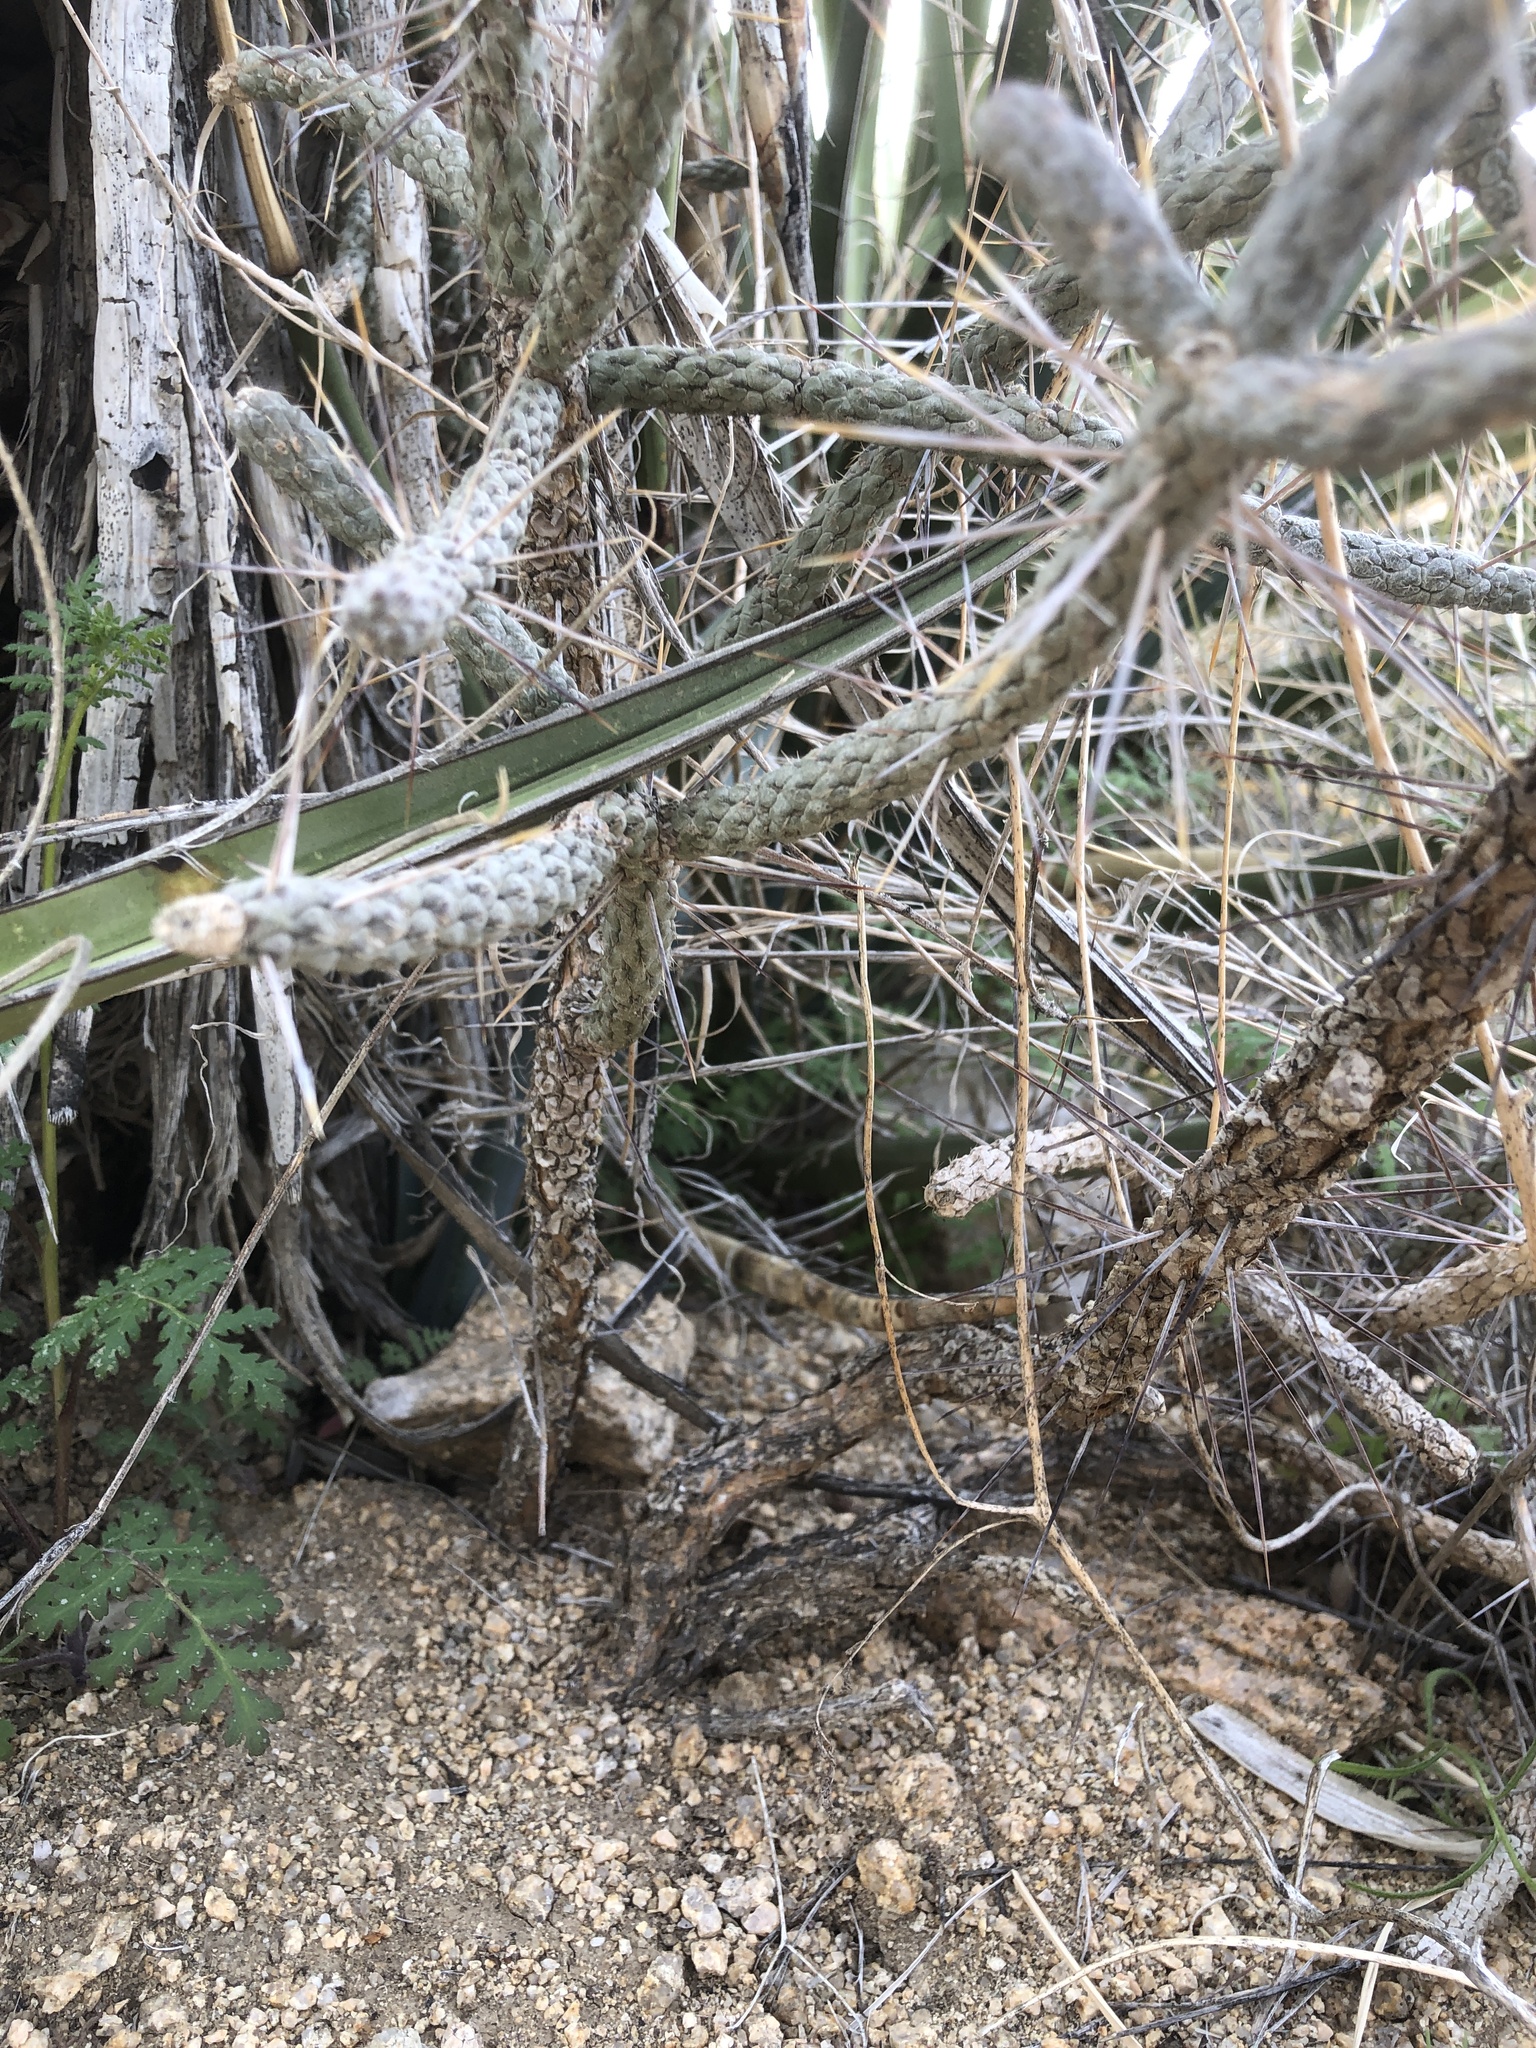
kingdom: Plantae
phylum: Tracheophyta
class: Magnoliopsida
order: Caryophyllales
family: Cactaceae
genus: Cylindropuntia
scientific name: Cylindropuntia ramosissima
